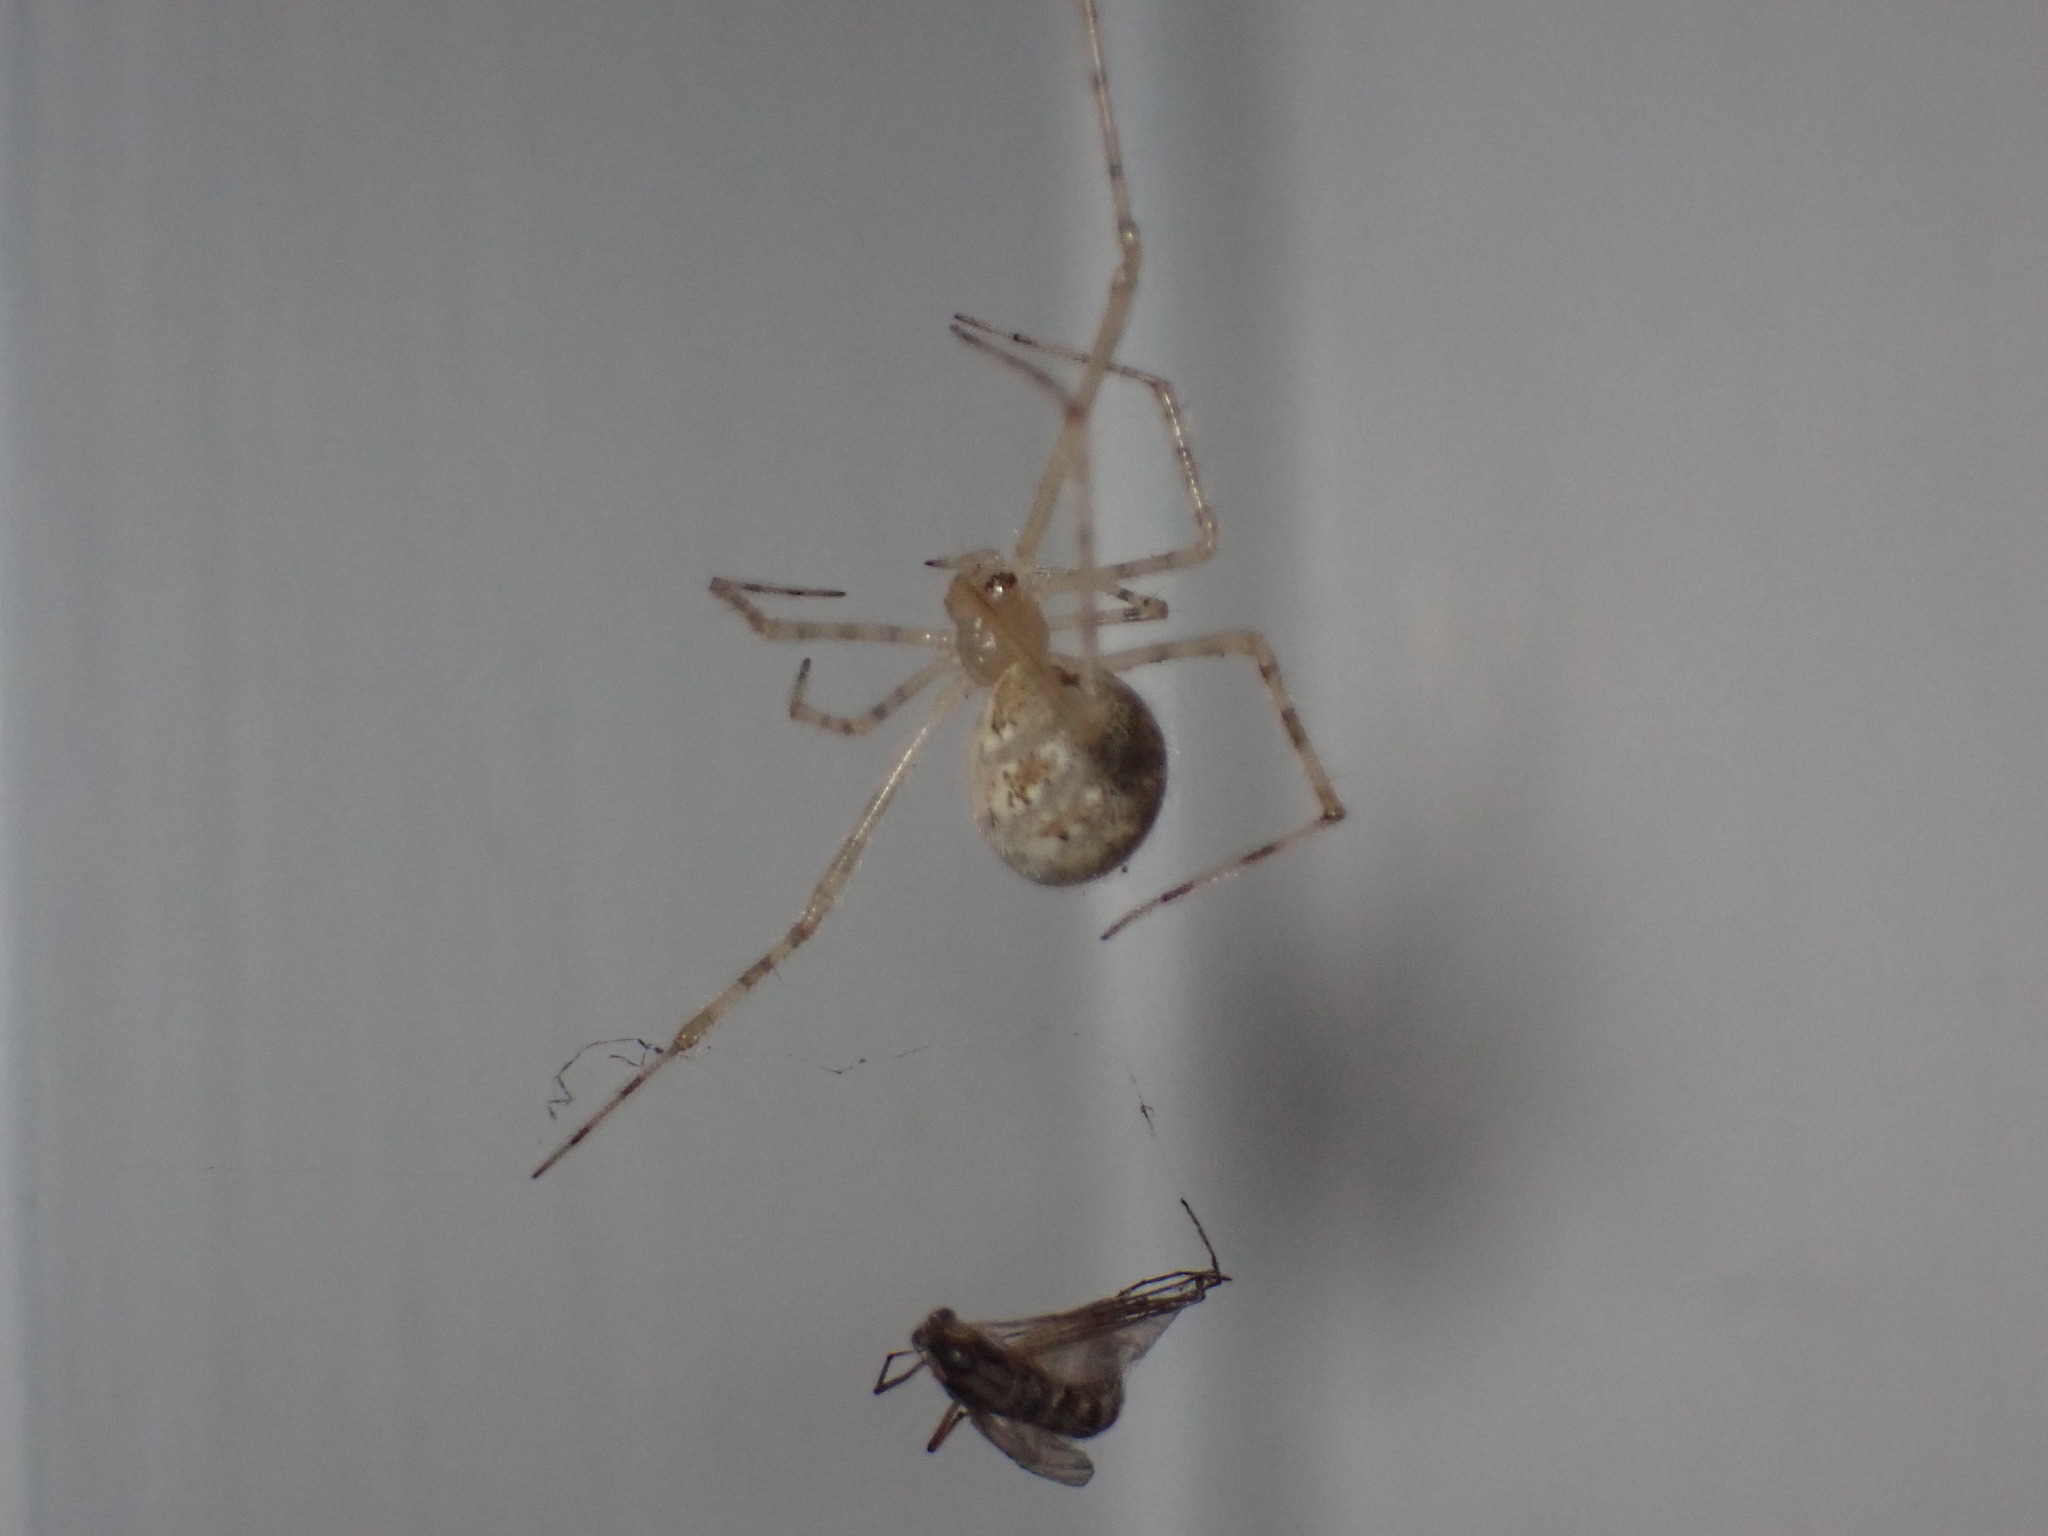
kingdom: Animalia
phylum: Arthropoda
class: Arachnida
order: Araneae
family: Theridiidae
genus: Cryptachaea
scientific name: Cryptachaea gigantipes
